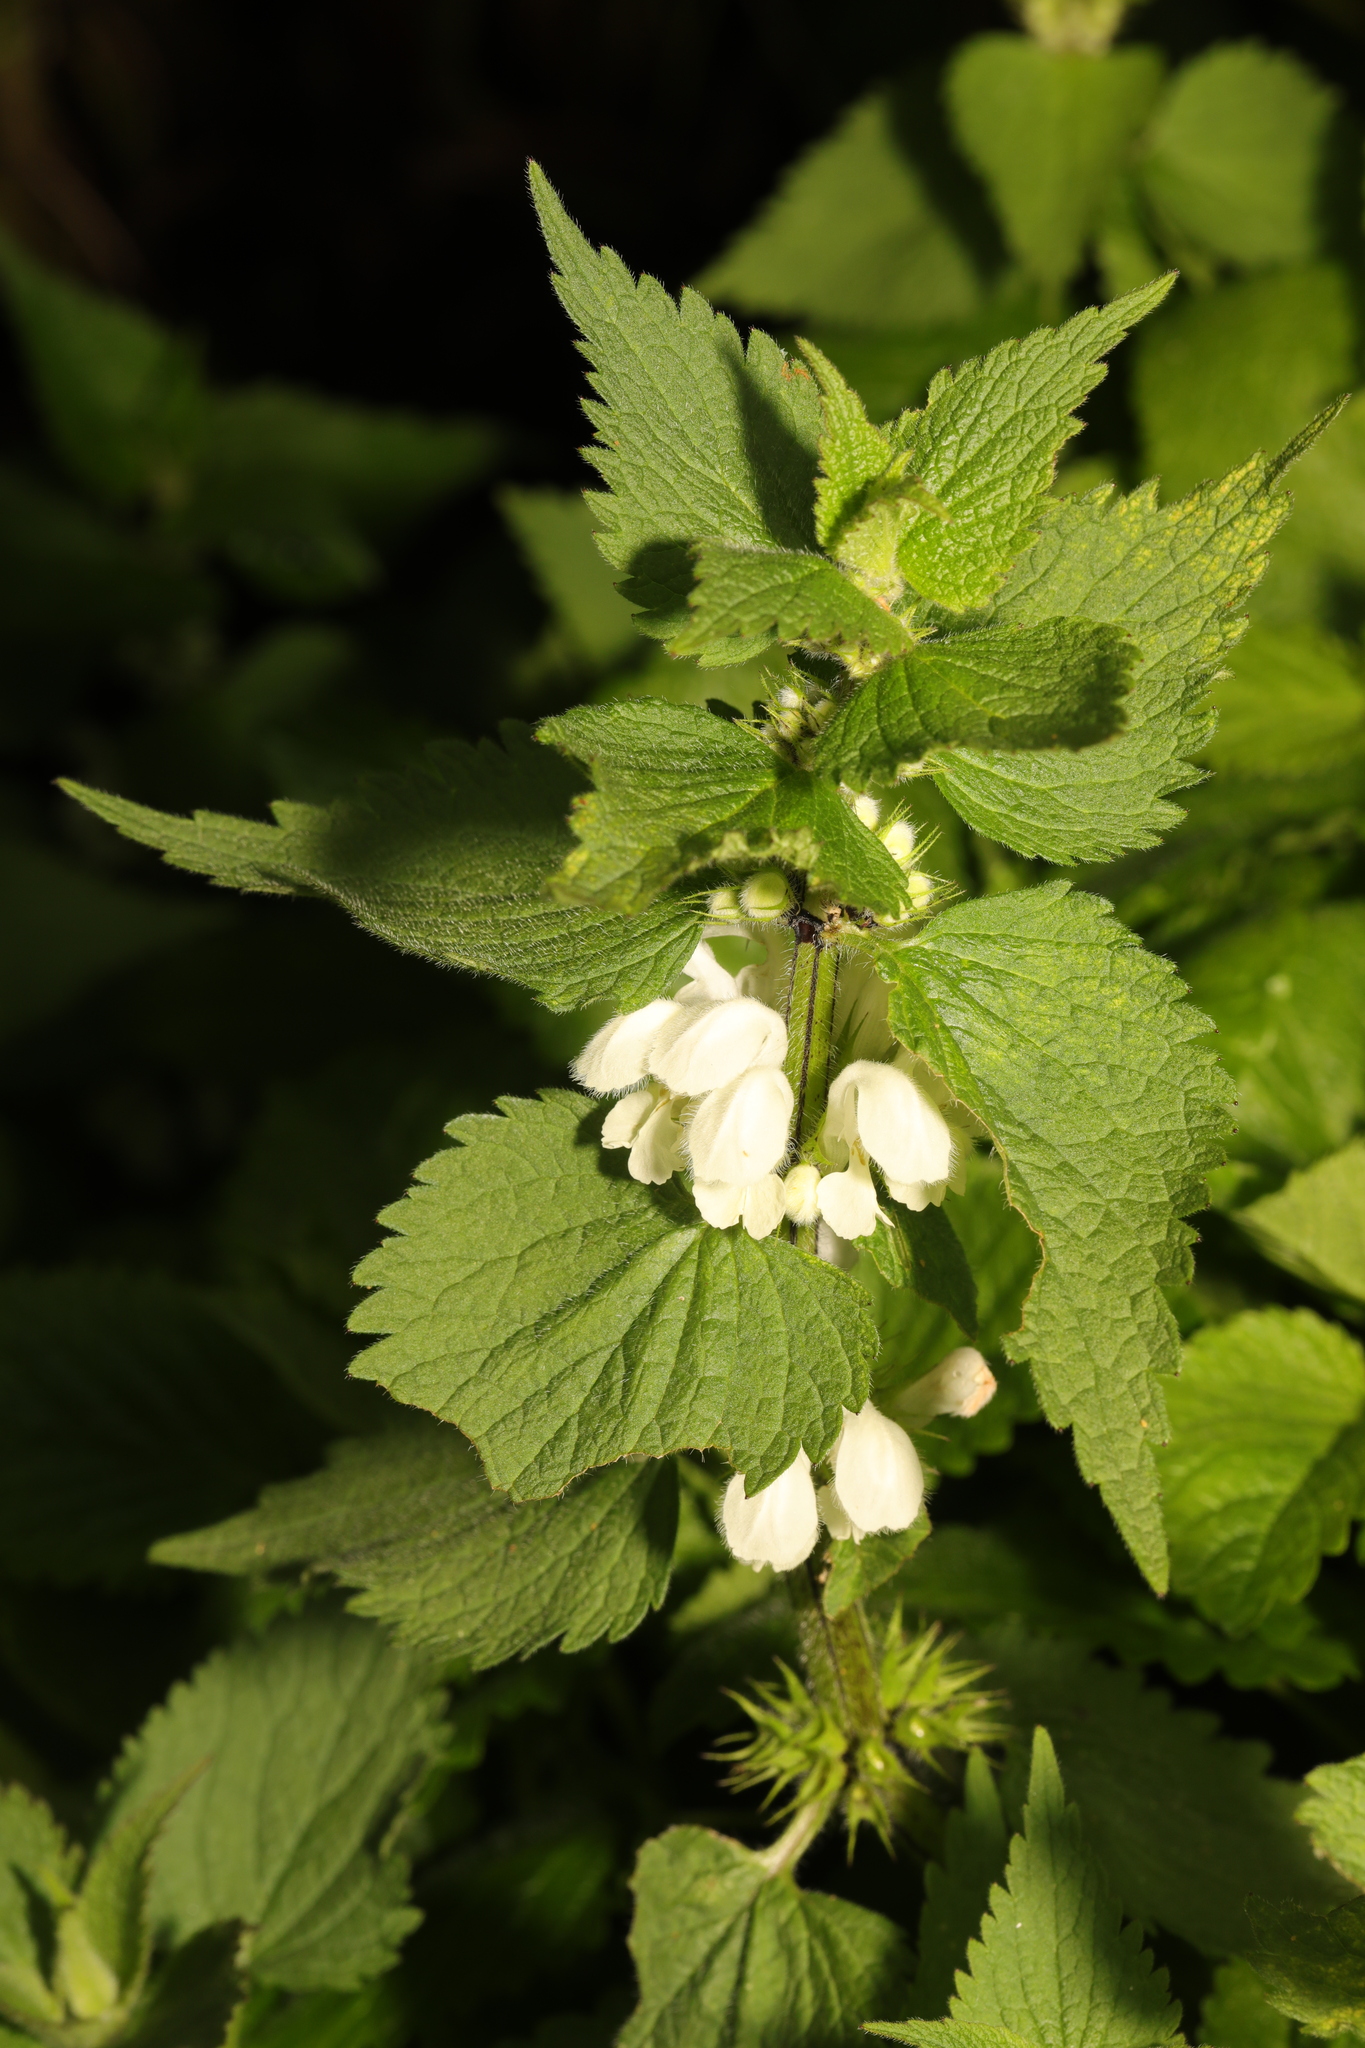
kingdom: Plantae
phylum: Tracheophyta
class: Magnoliopsida
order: Lamiales
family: Lamiaceae
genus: Lamium
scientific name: Lamium album
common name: White dead-nettle
